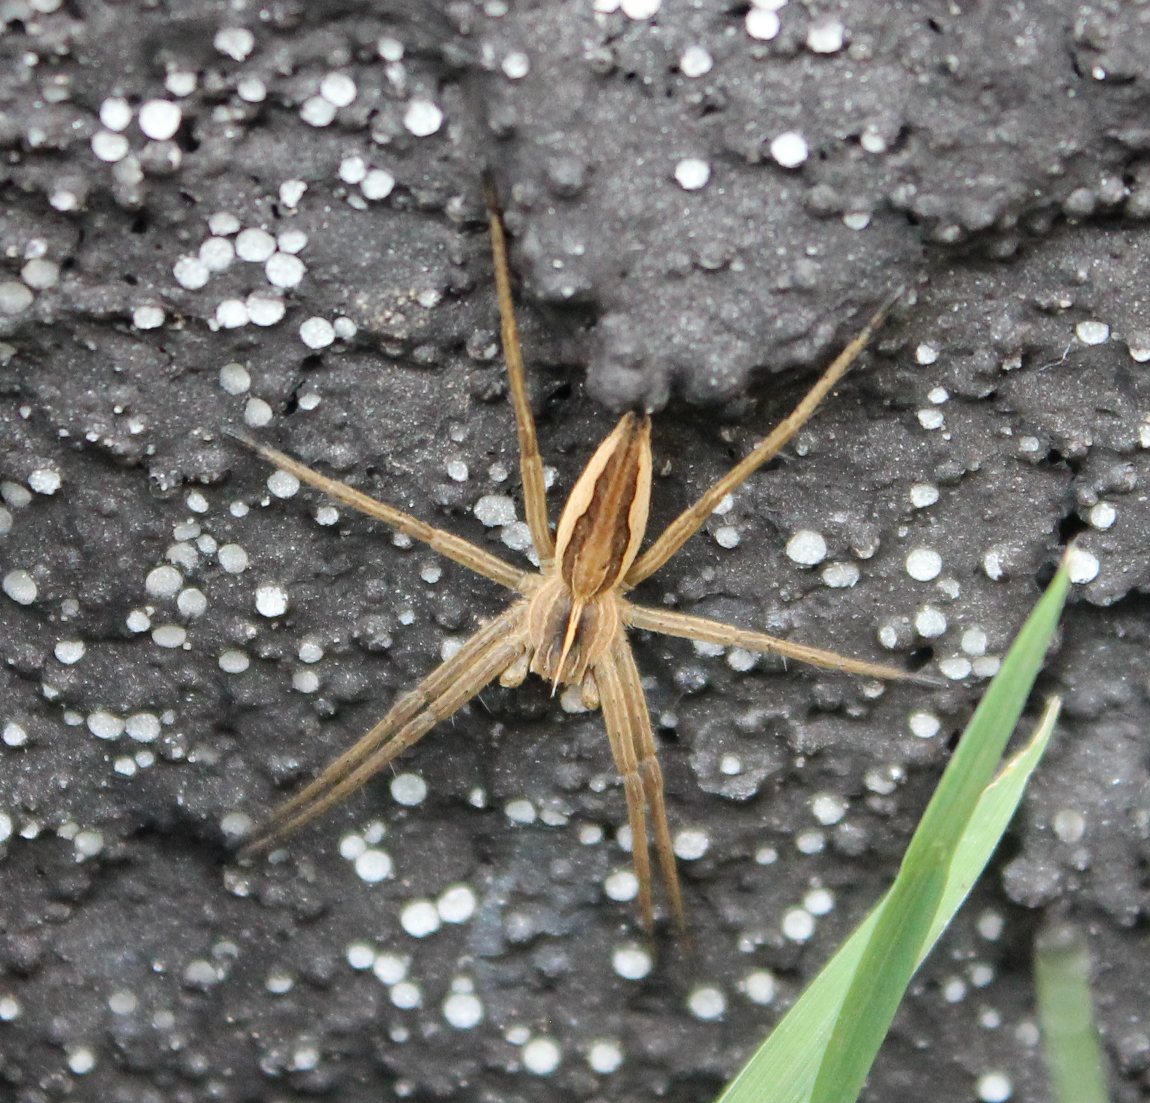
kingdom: Animalia
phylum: Arthropoda
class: Arachnida
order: Araneae
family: Pisauridae
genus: Pisaura
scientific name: Pisaura mirabilis
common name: Tent spider
